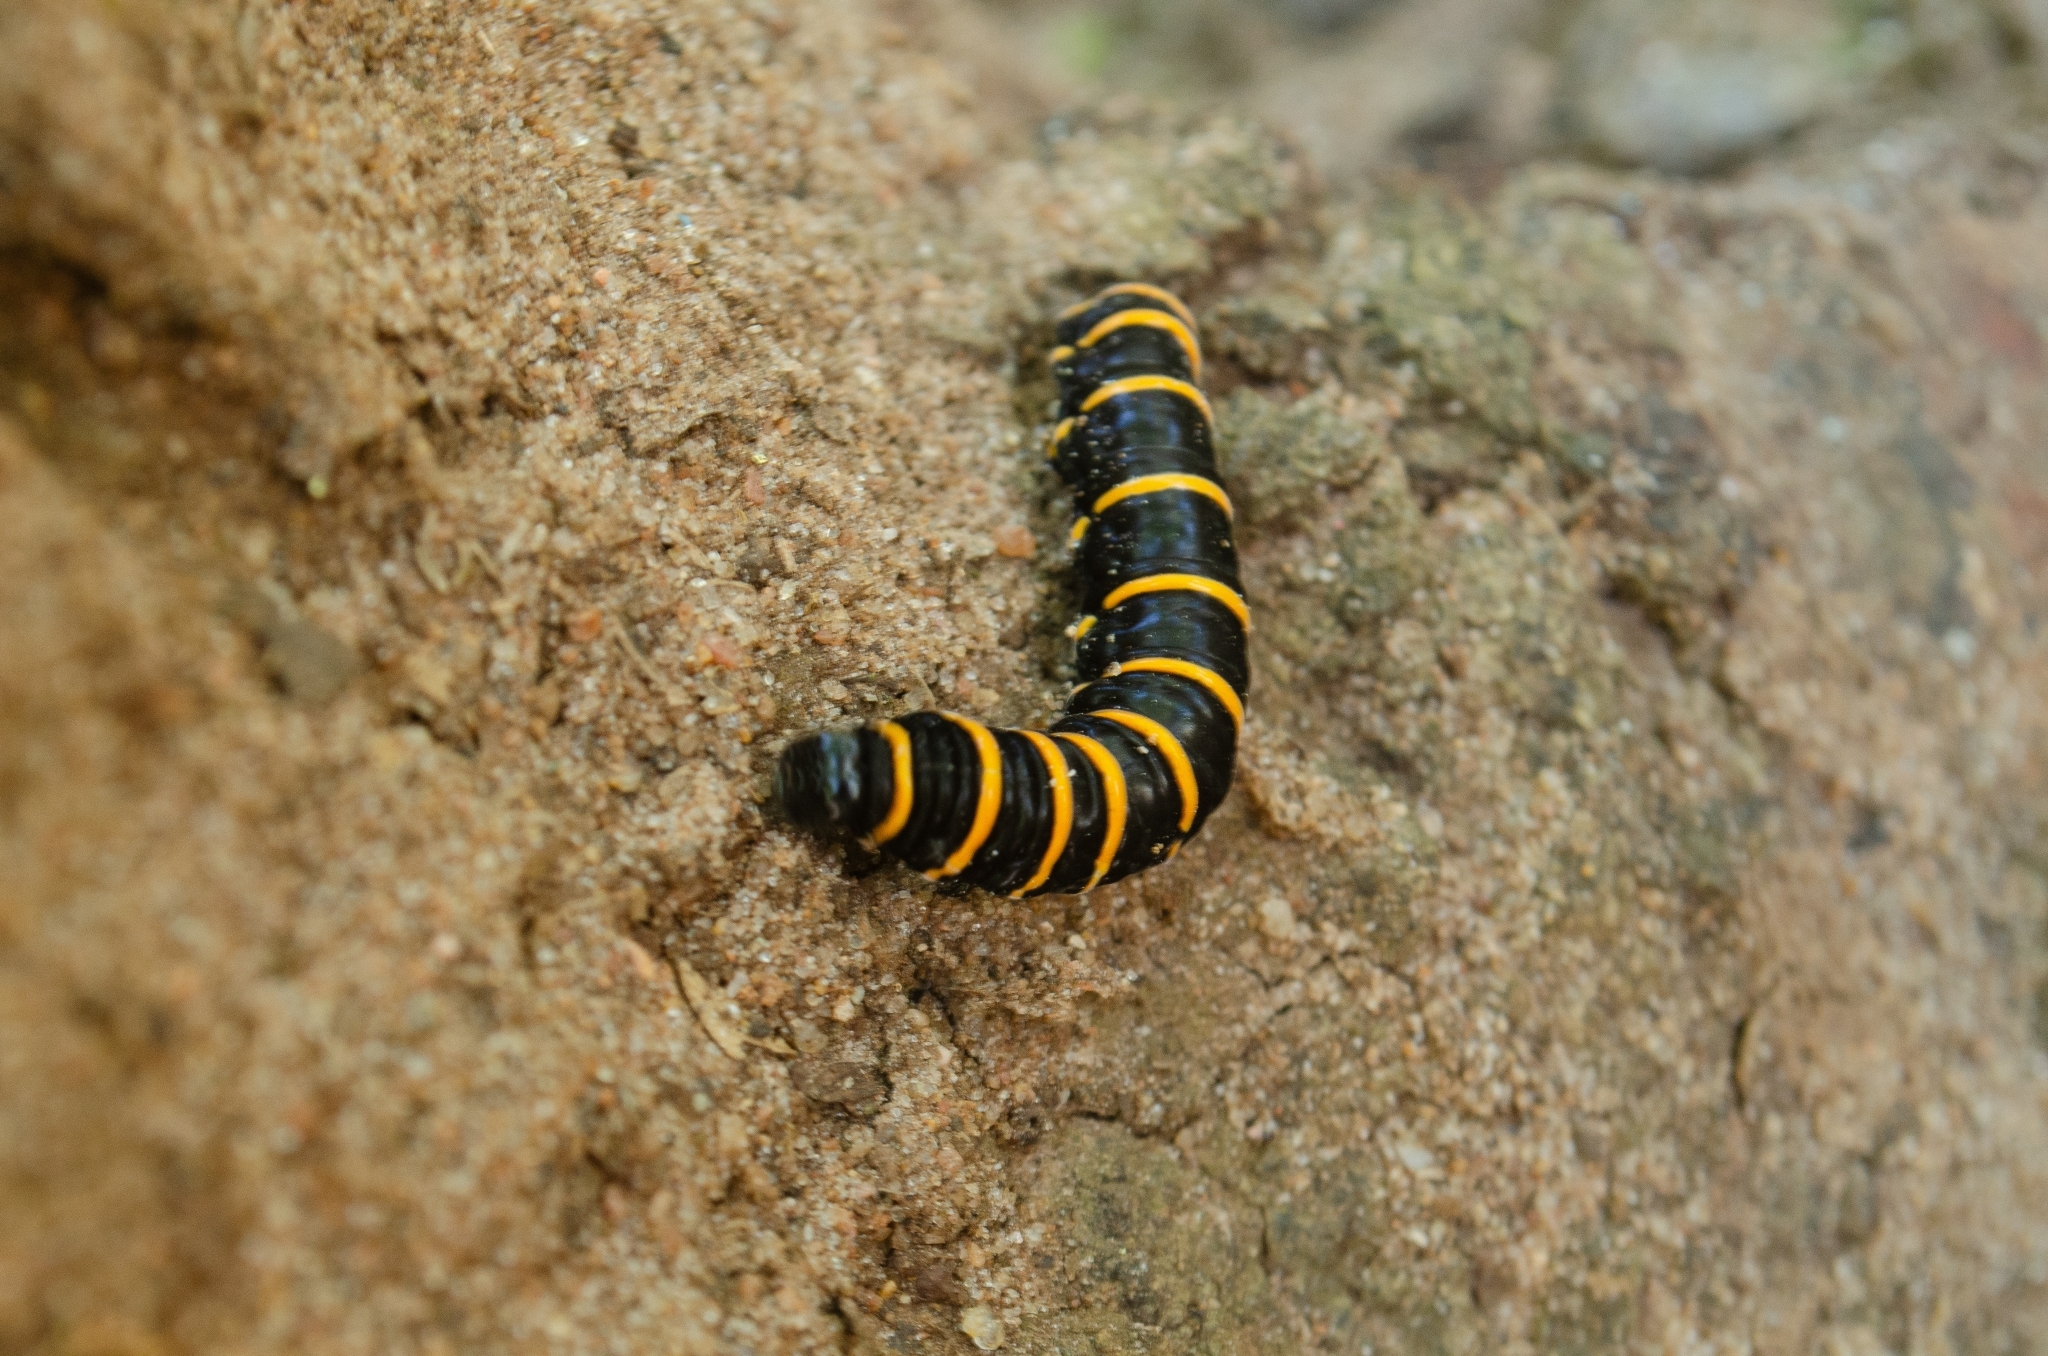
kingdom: Animalia
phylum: Arthropoda
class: Insecta
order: Lepidoptera
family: Nymphalidae
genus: Methona
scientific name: Methona themisto
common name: Themisto amberwing
